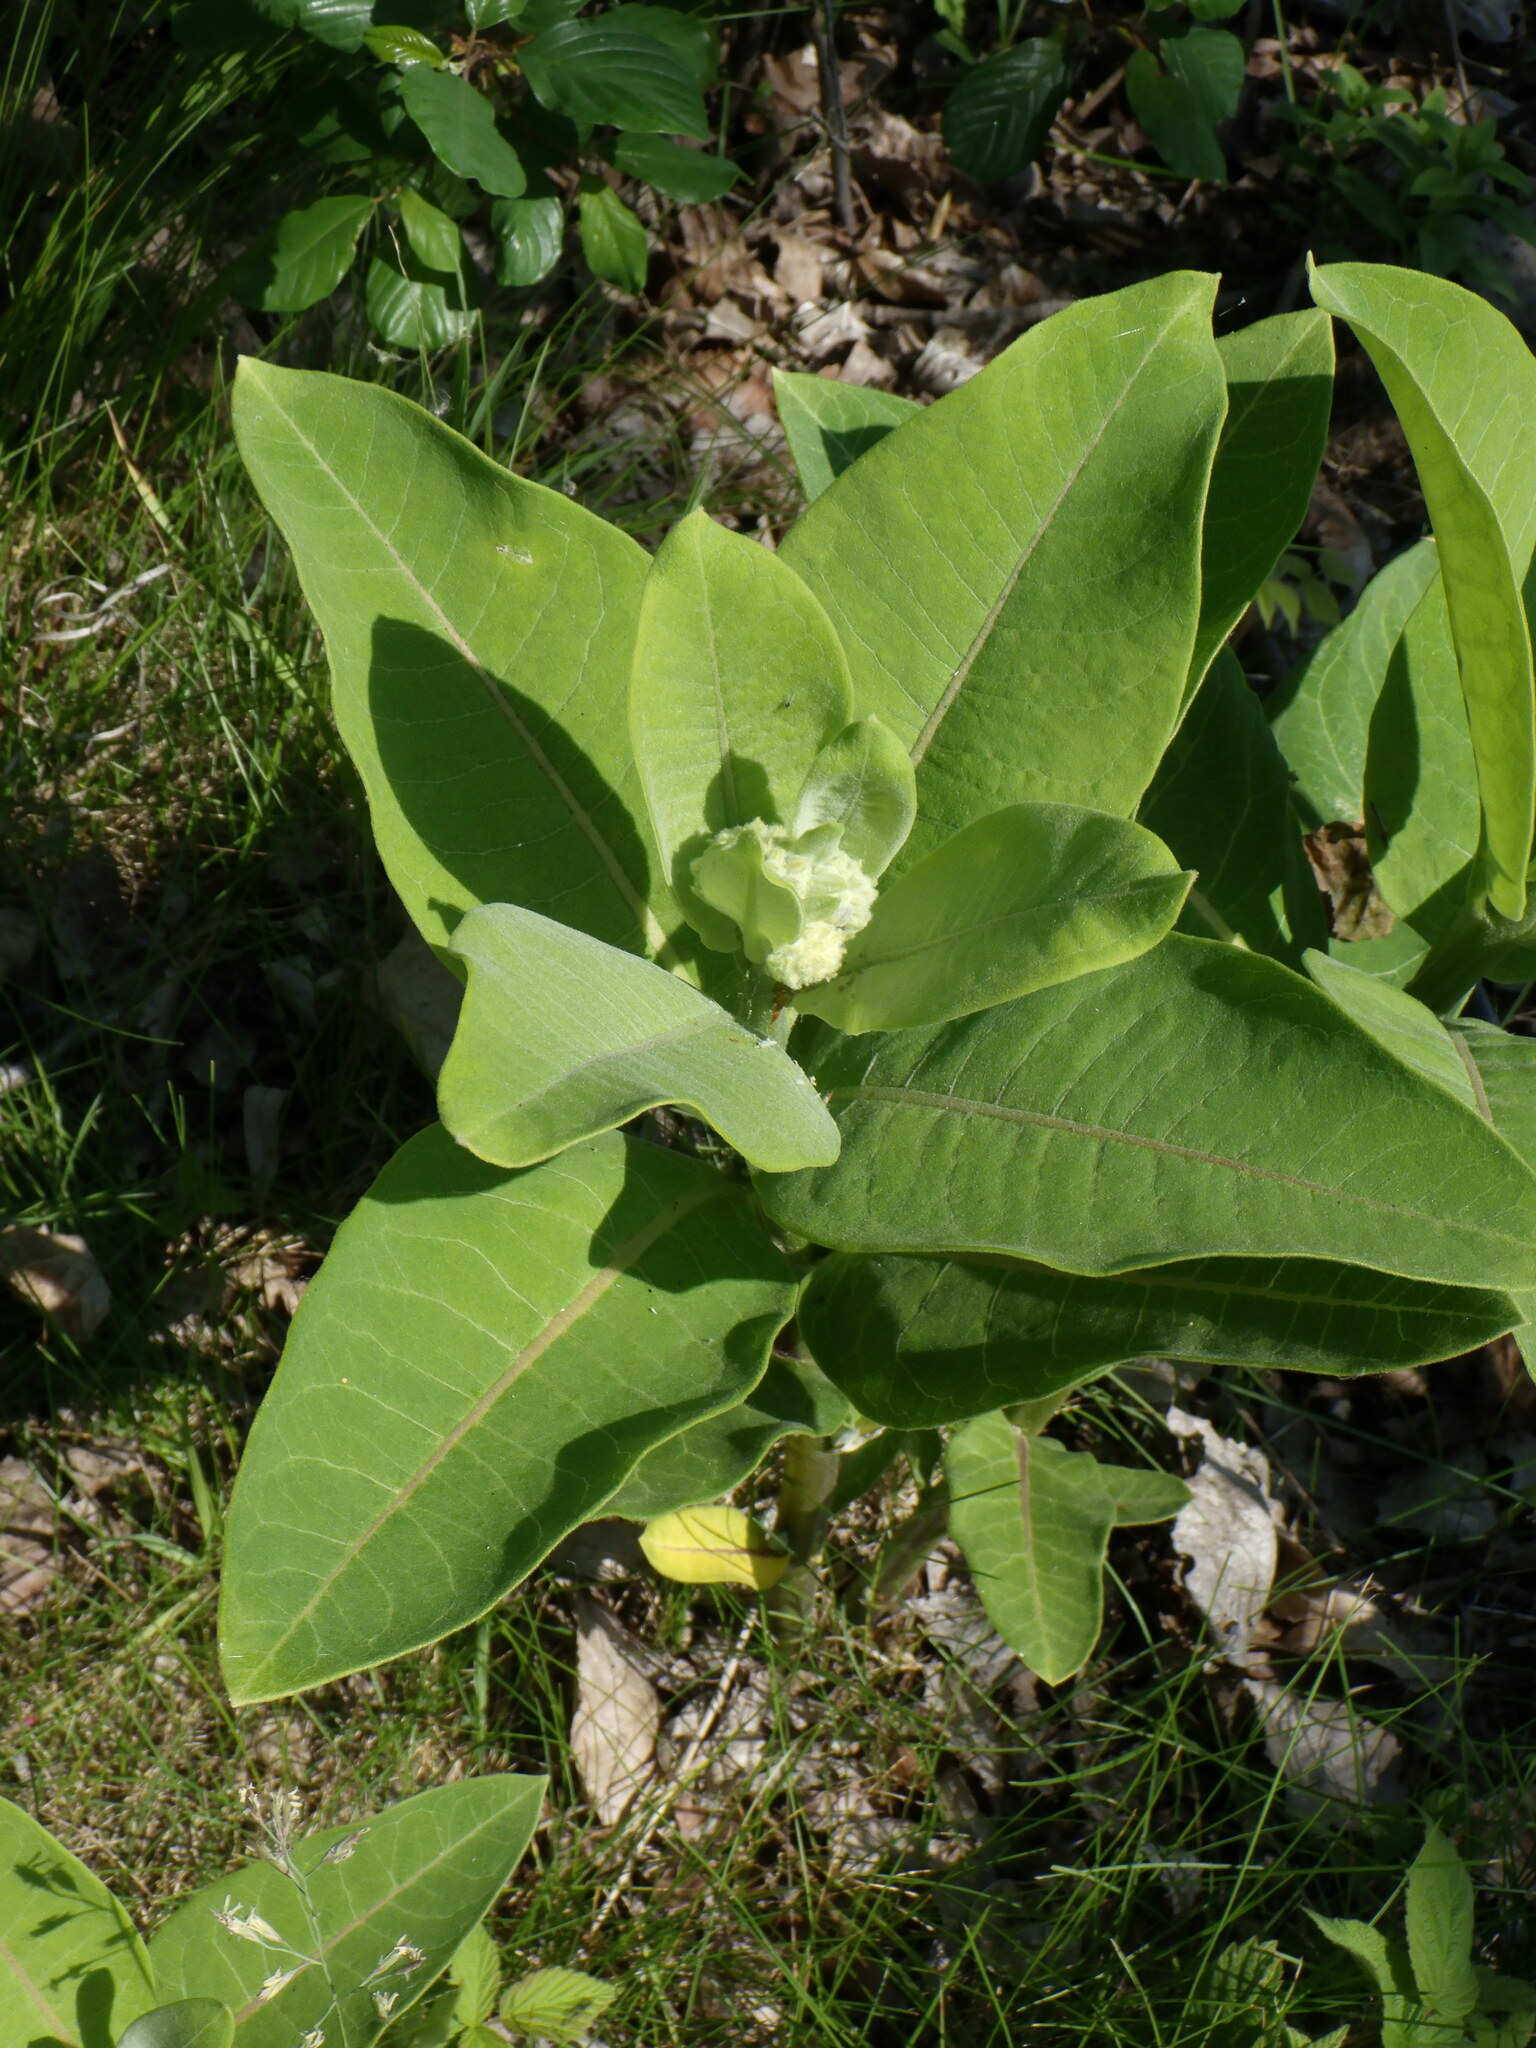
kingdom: Plantae
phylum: Tracheophyta
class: Magnoliopsida
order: Gentianales
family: Apocynaceae
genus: Asclepias
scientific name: Asclepias syriaca
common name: Common milkweed
